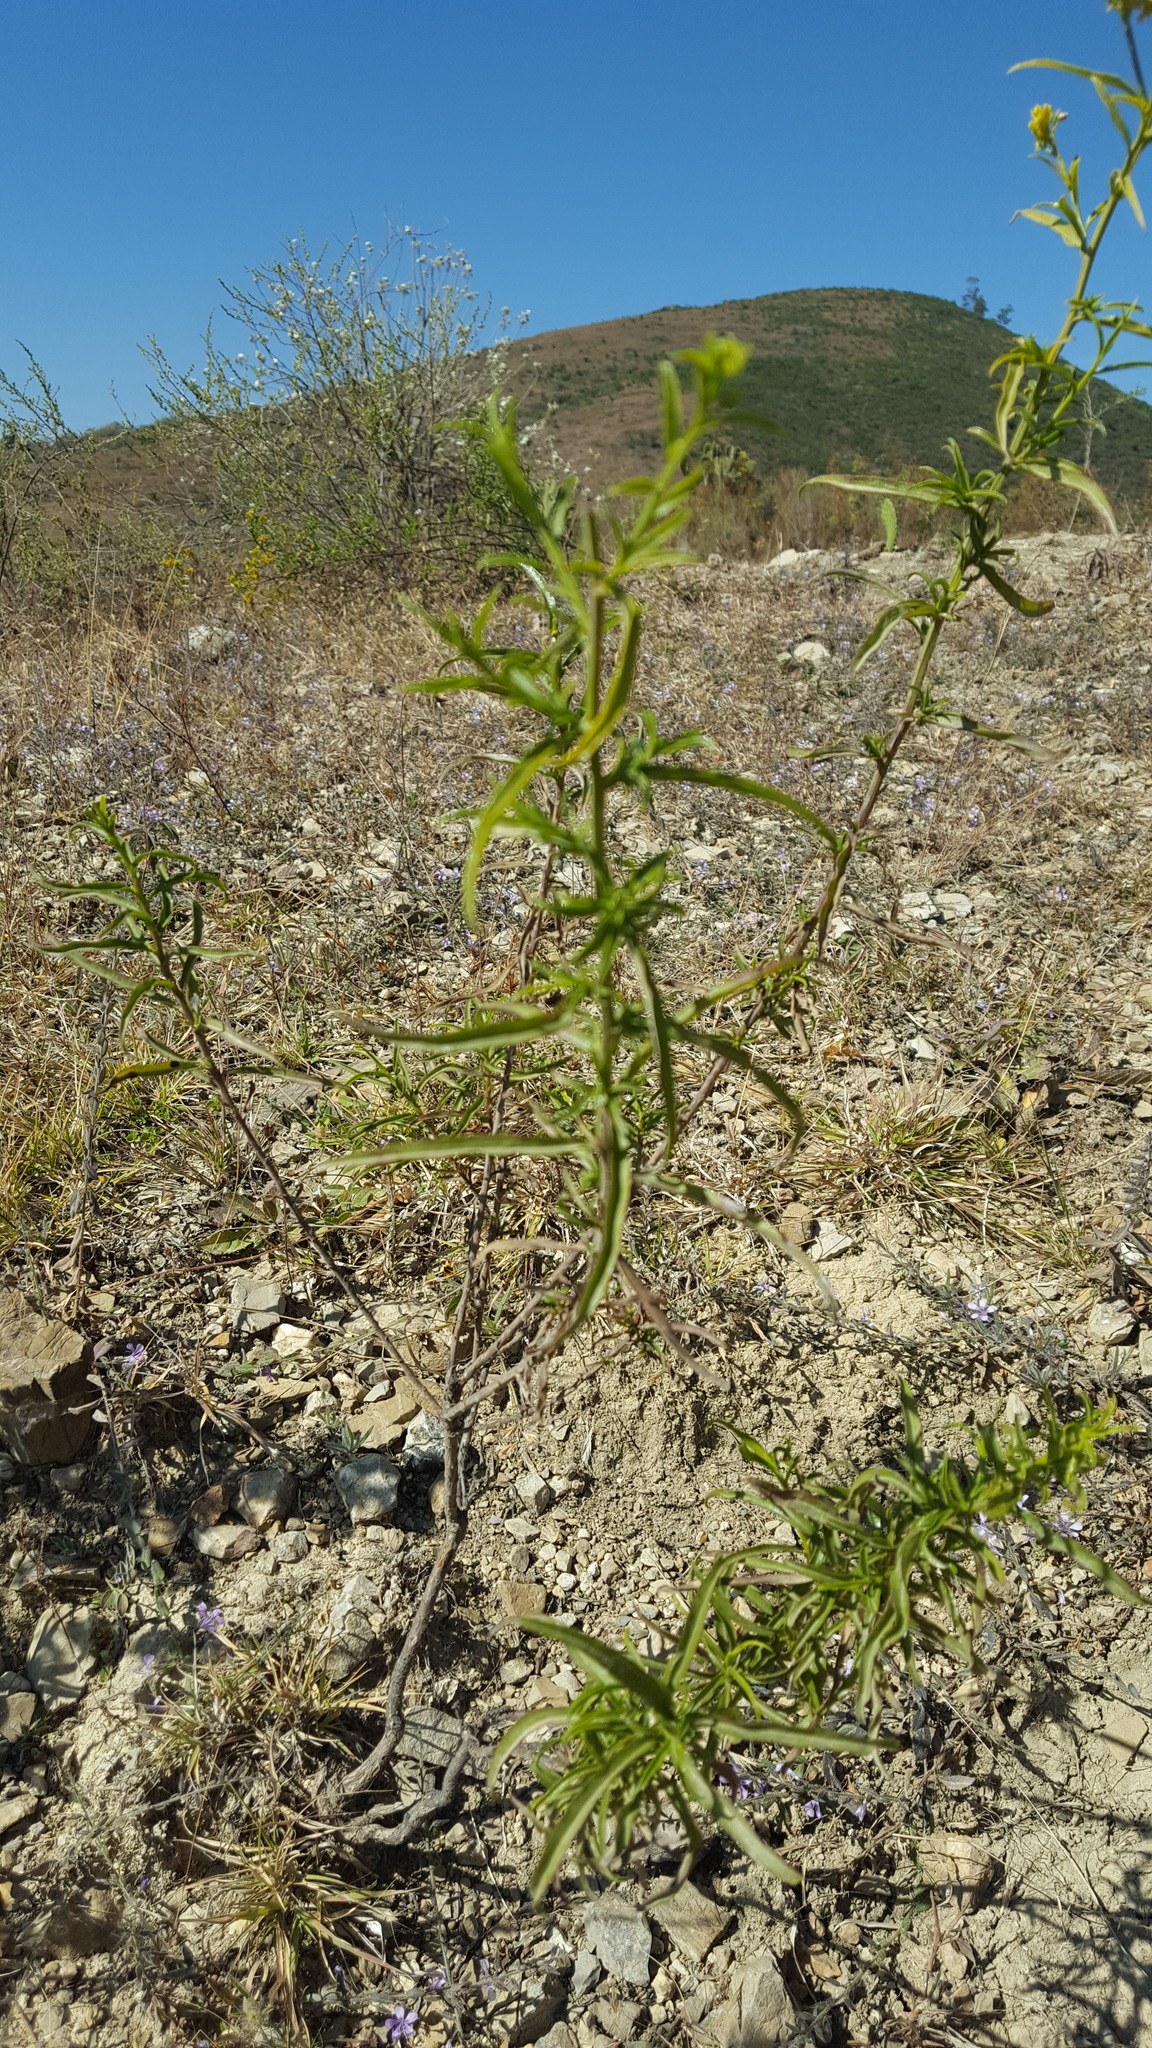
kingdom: Plantae
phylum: Tracheophyta
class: Magnoliopsida
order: Asterales
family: Asteraceae
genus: Gymnosperma
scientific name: Gymnosperma glutinosum
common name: Gumhead
